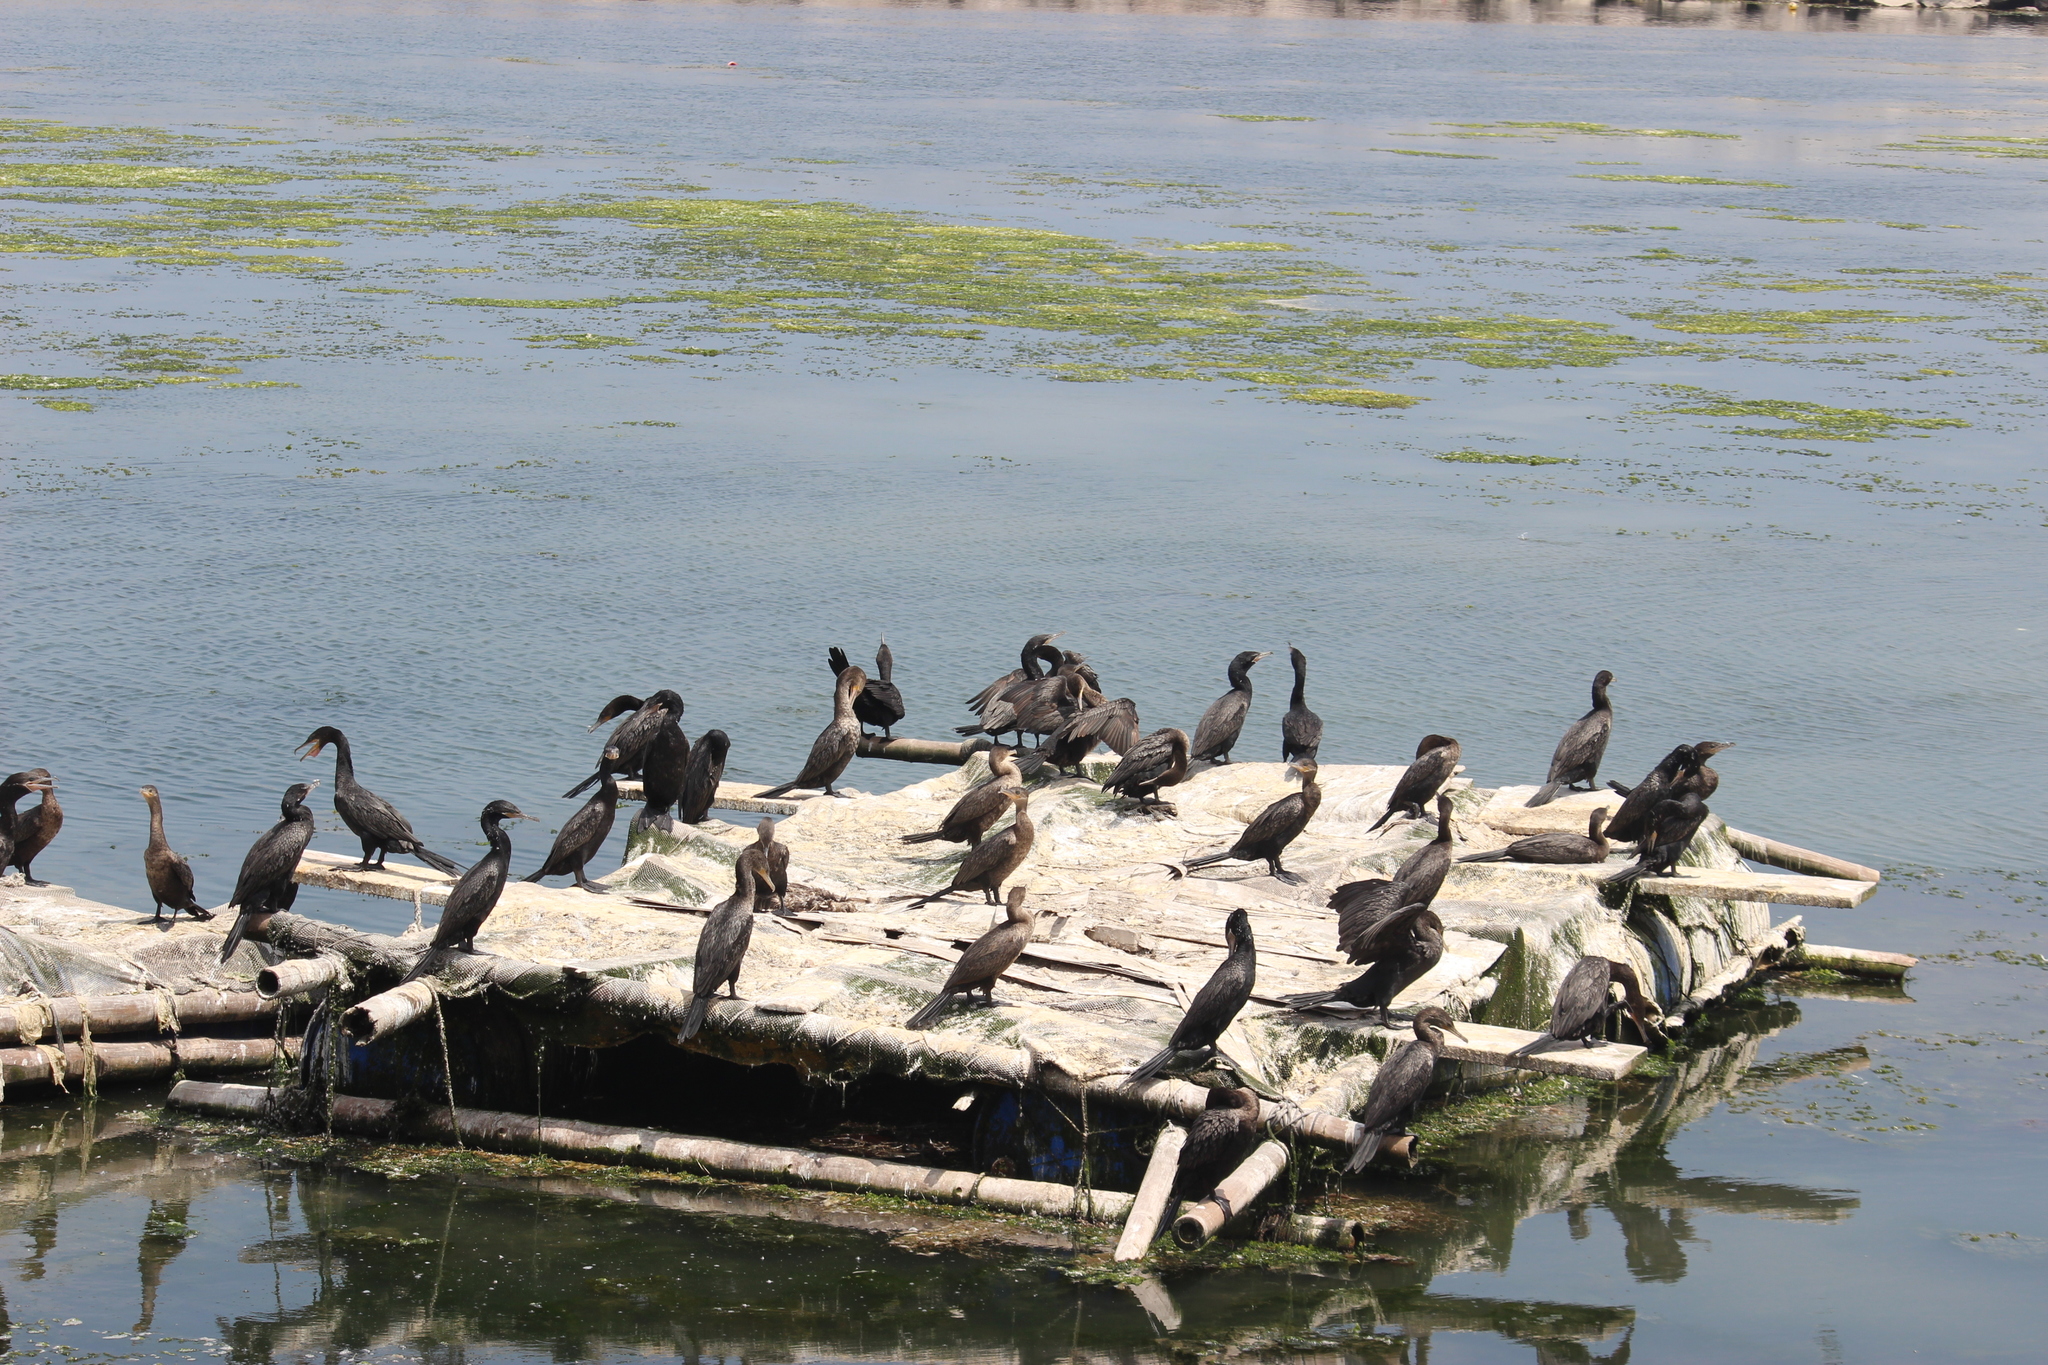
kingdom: Animalia
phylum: Chordata
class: Aves
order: Suliformes
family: Phalacrocoracidae
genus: Phalacrocorax
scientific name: Phalacrocorax brasilianus
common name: Neotropic cormorant
